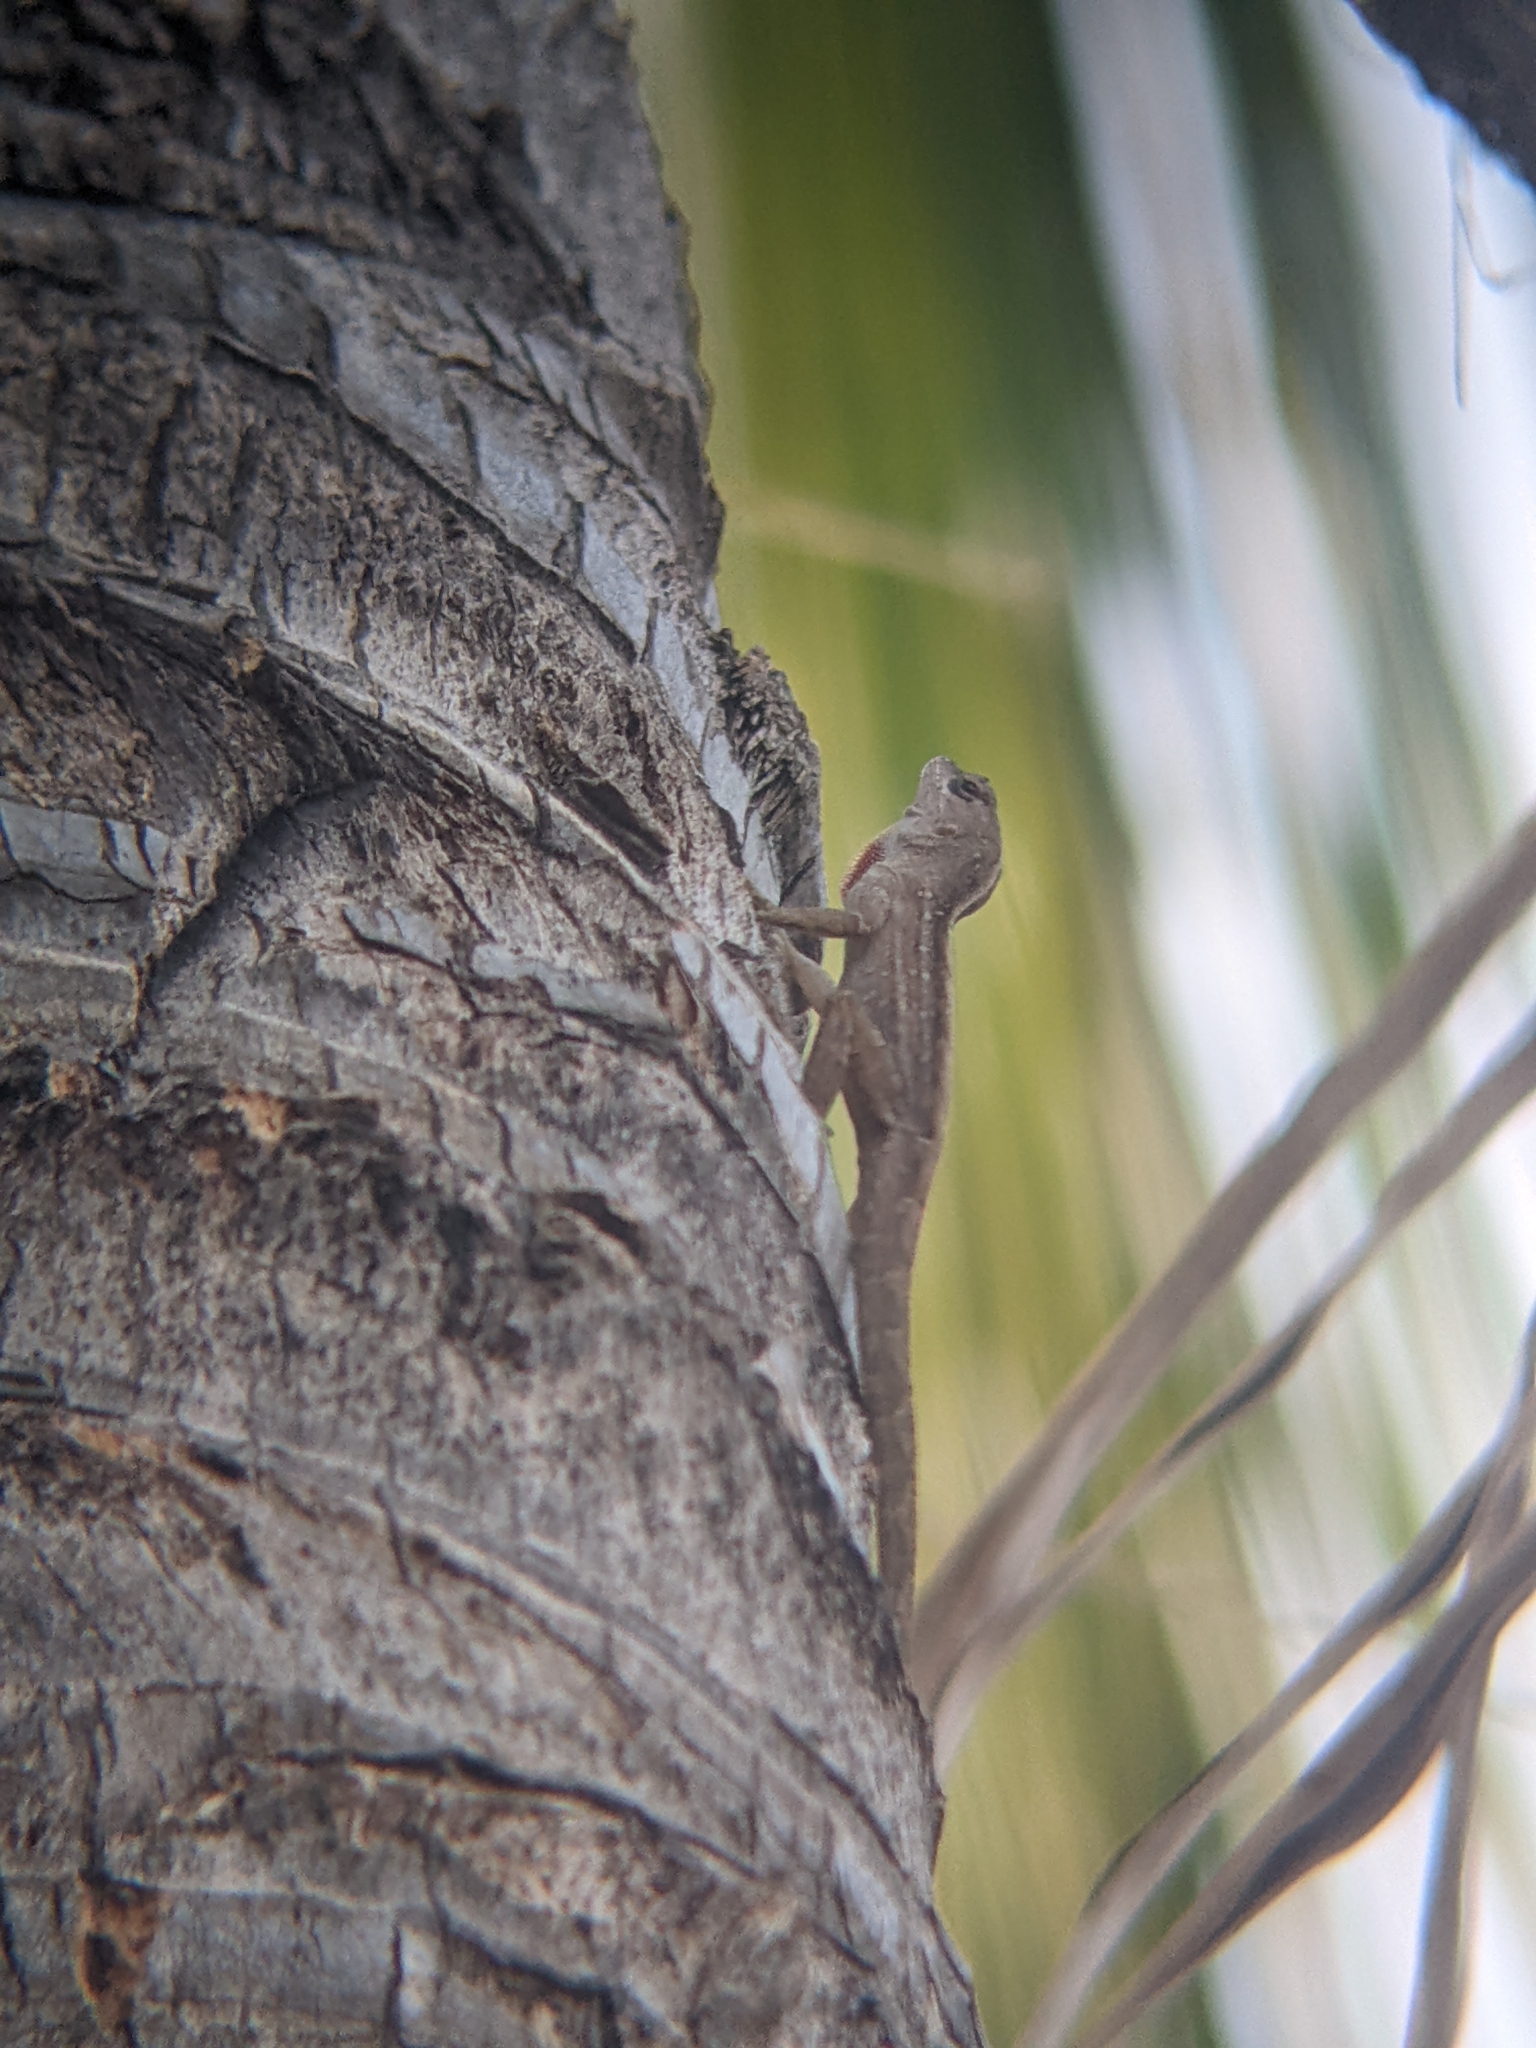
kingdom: Animalia
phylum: Chordata
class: Squamata
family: Dactyloidae
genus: Anolis
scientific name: Anolis nebulosus
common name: Clouded anole
